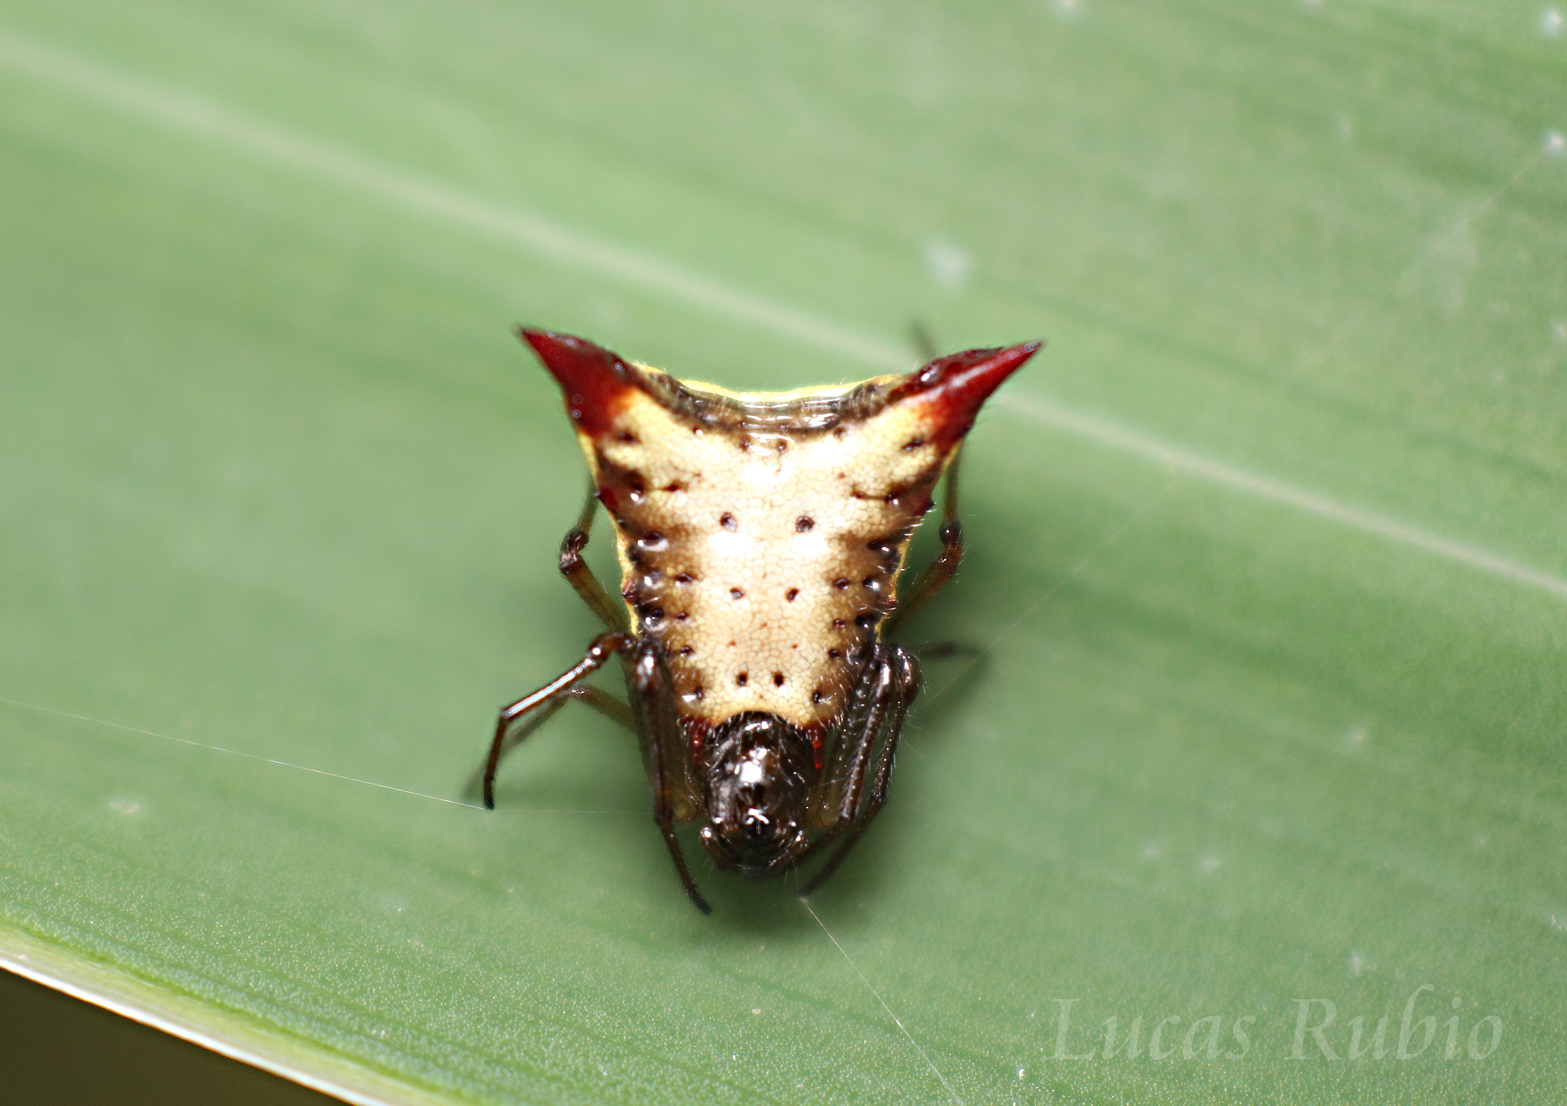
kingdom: Animalia
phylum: Arthropoda
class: Arachnida
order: Araneae
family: Araneidae
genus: Micrathena
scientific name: Micrathena plana
